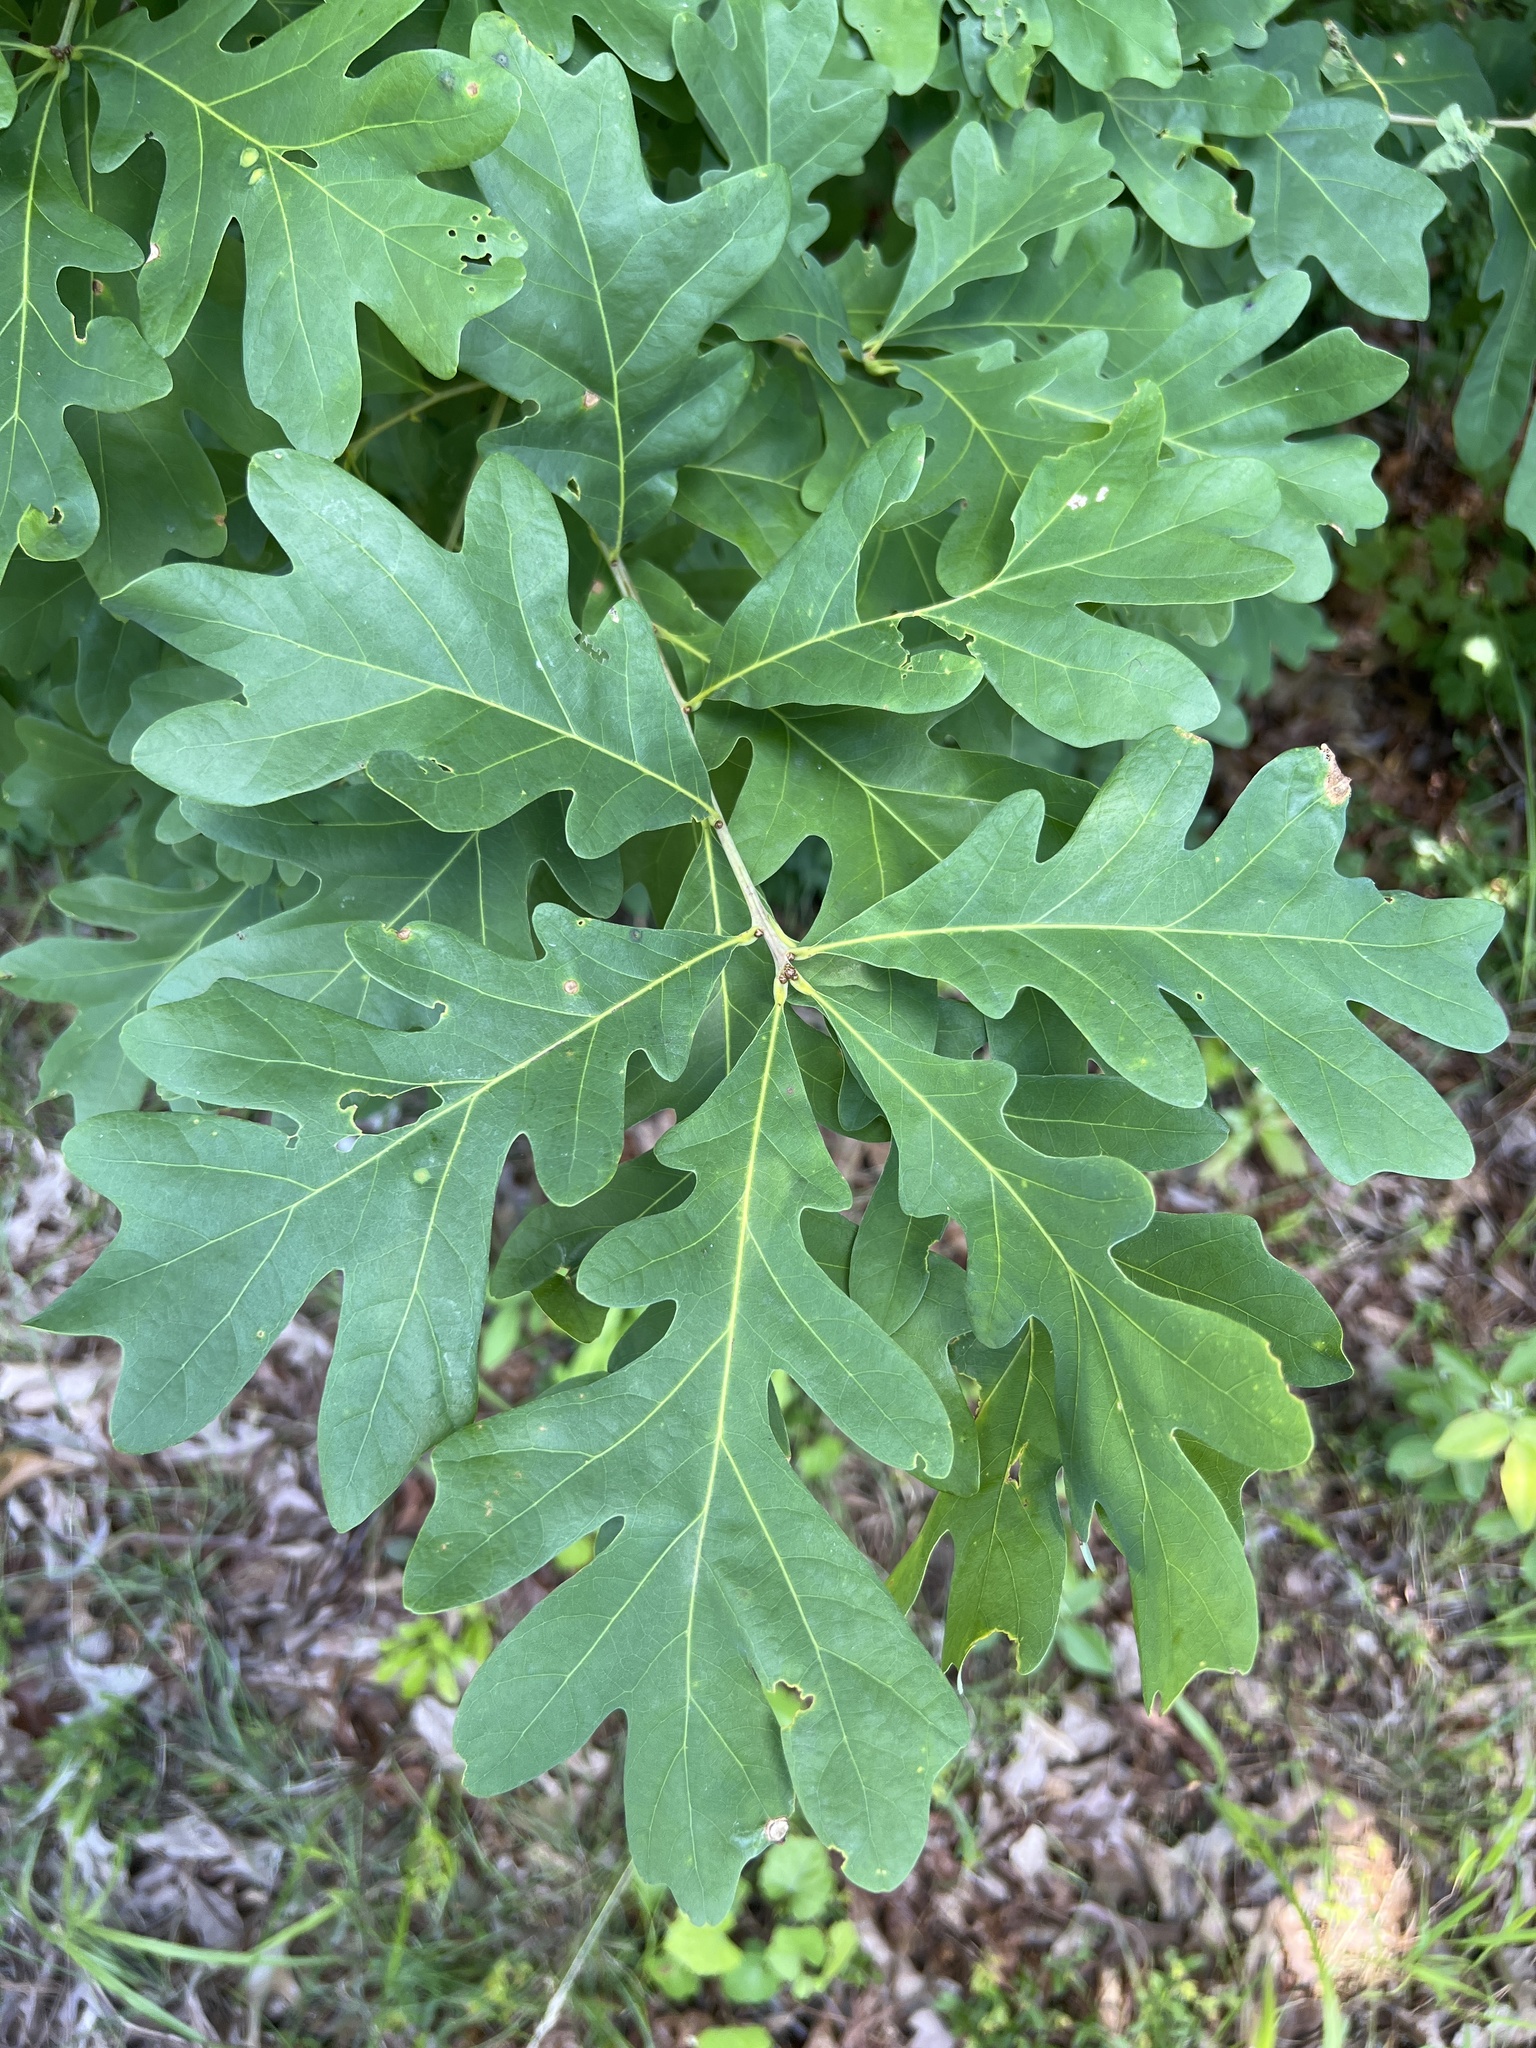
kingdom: Plantae
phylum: Tracheophyta
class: Magnoliopsida
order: Fagales
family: Fagaceae
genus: Quercus
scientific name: Quercus alba
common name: White oak
